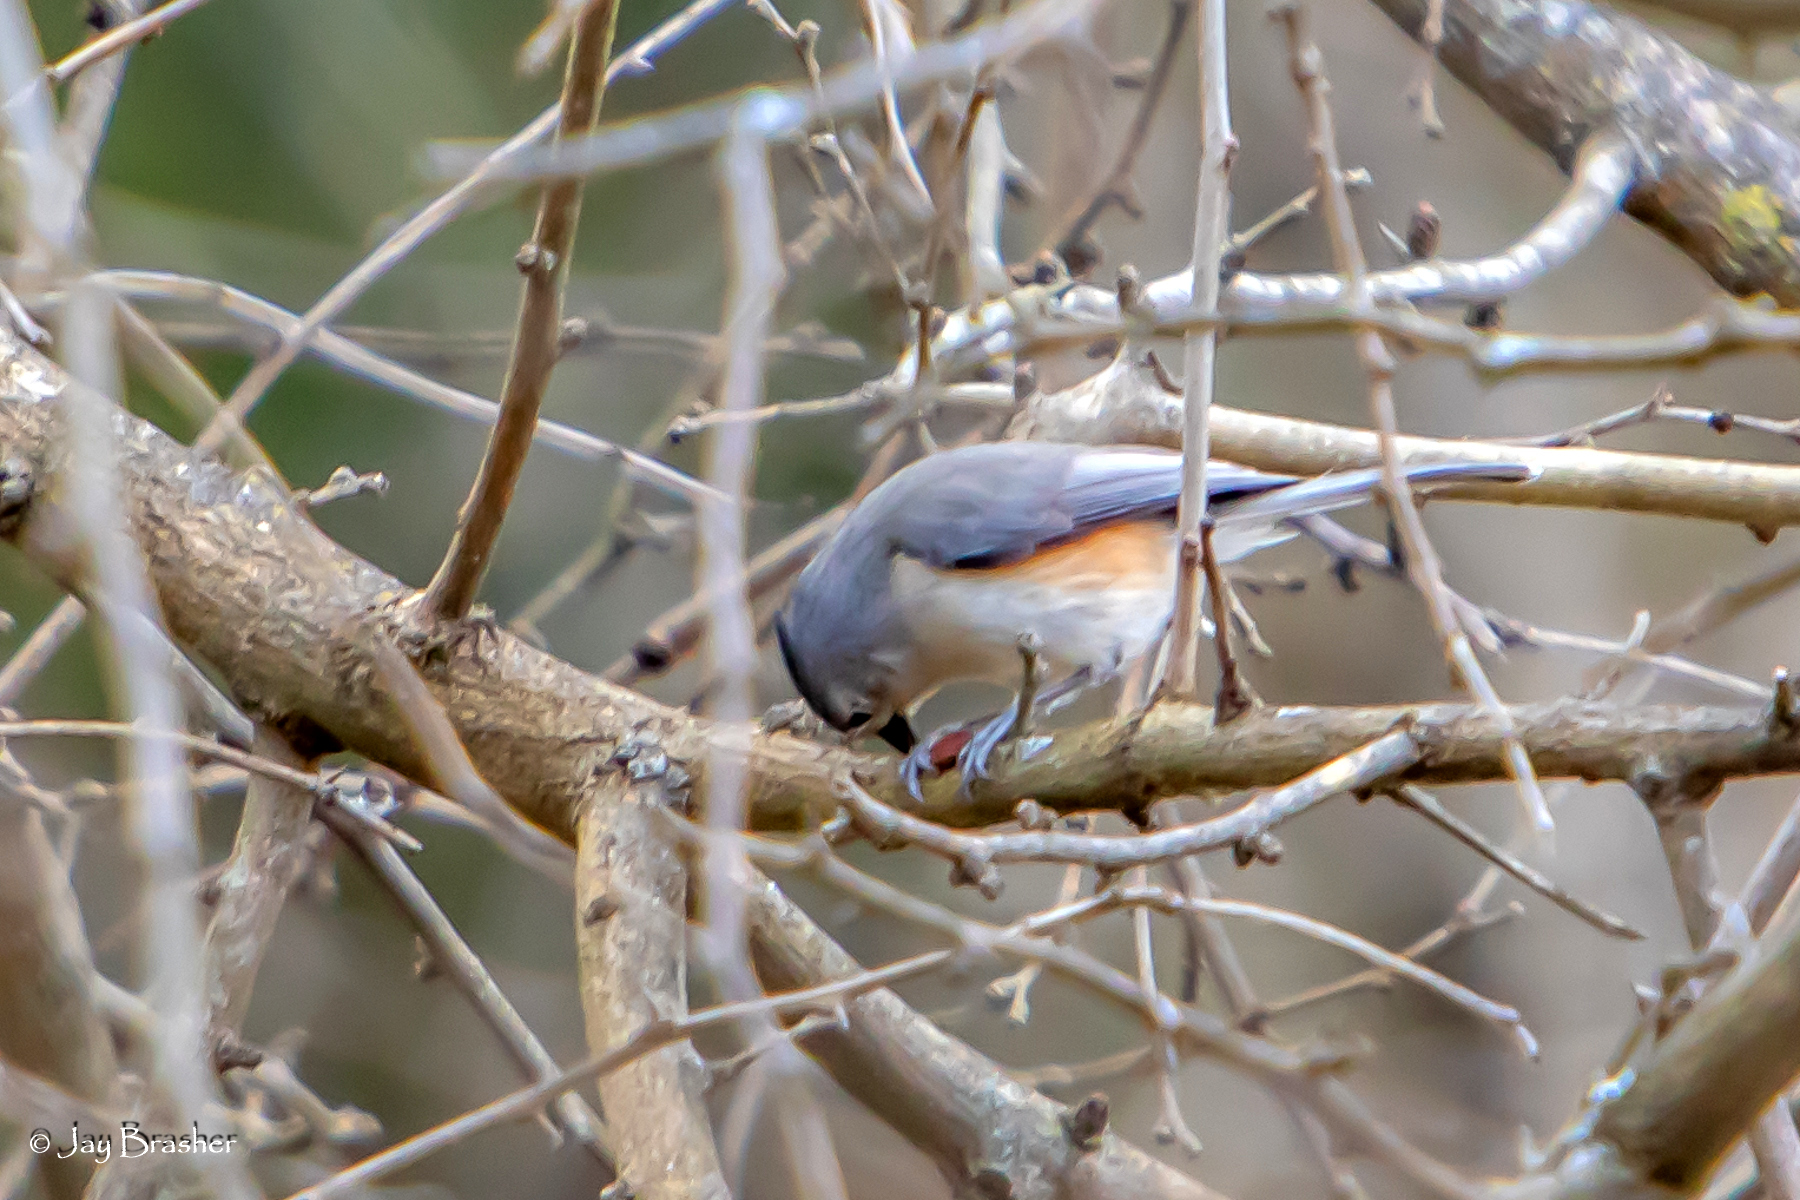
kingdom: Animalia
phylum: Chordata
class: Aves
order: Passeriformes
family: Paridae
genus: Baeolophus
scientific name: Baeolophus bicolor
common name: Tufted titmouse
